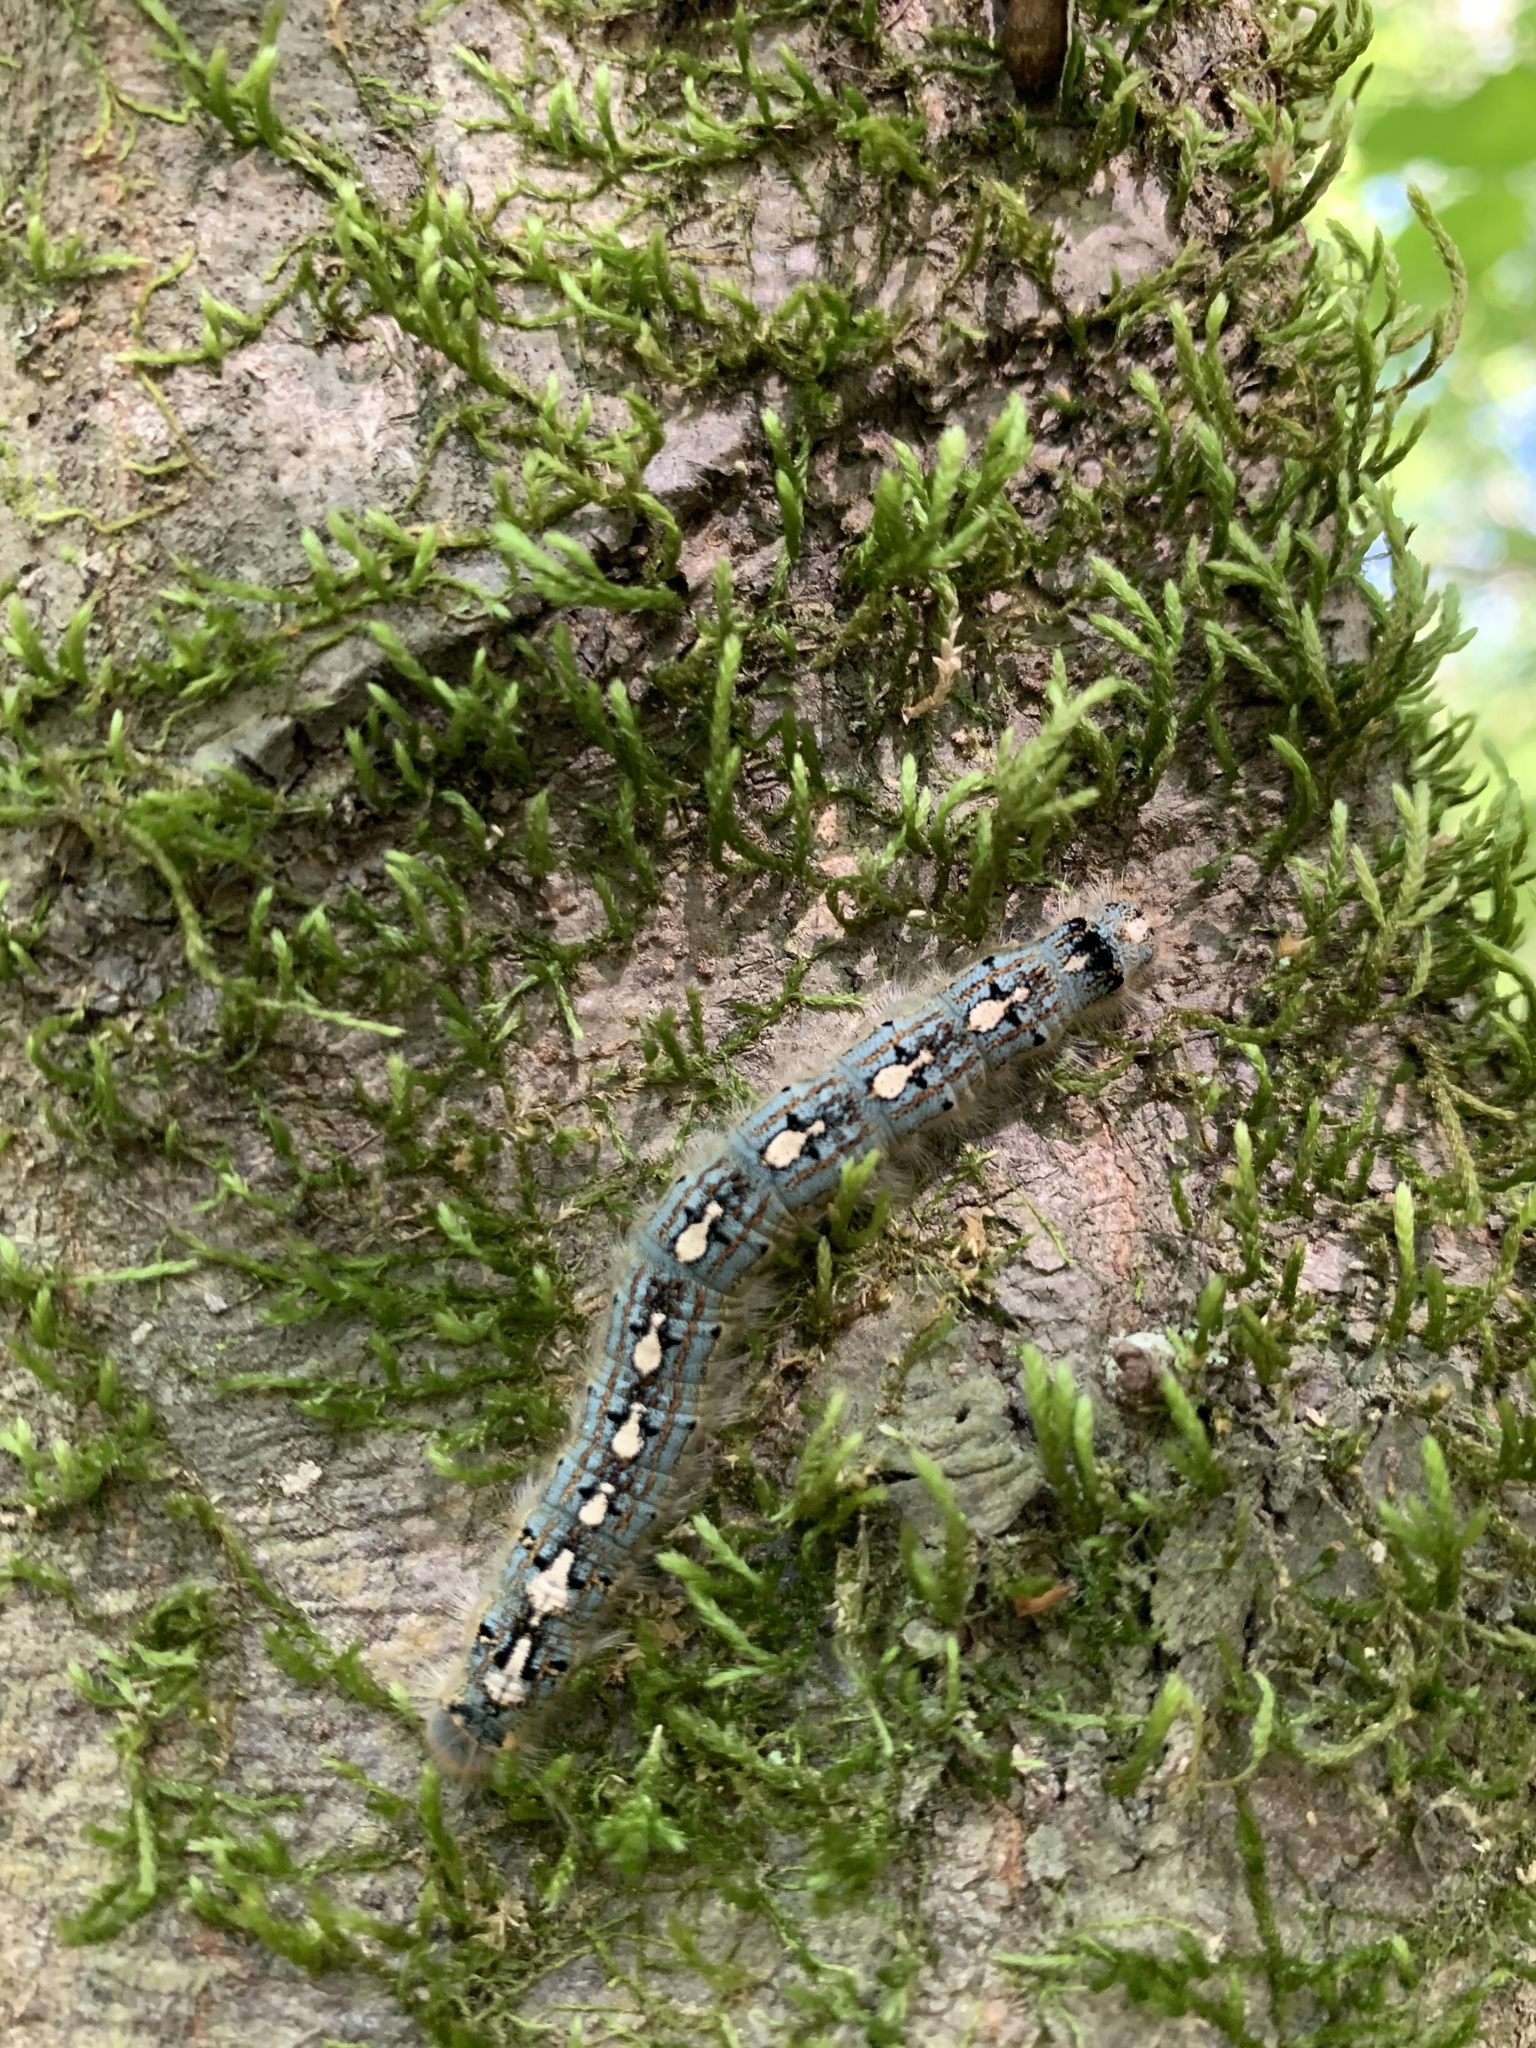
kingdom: Animalia
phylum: Arthropoda
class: Insecta
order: Lepidoptera
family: Lasiocampidae
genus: Malacosoma
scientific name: Malacosoma disstria
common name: Forest tent caterpillar
